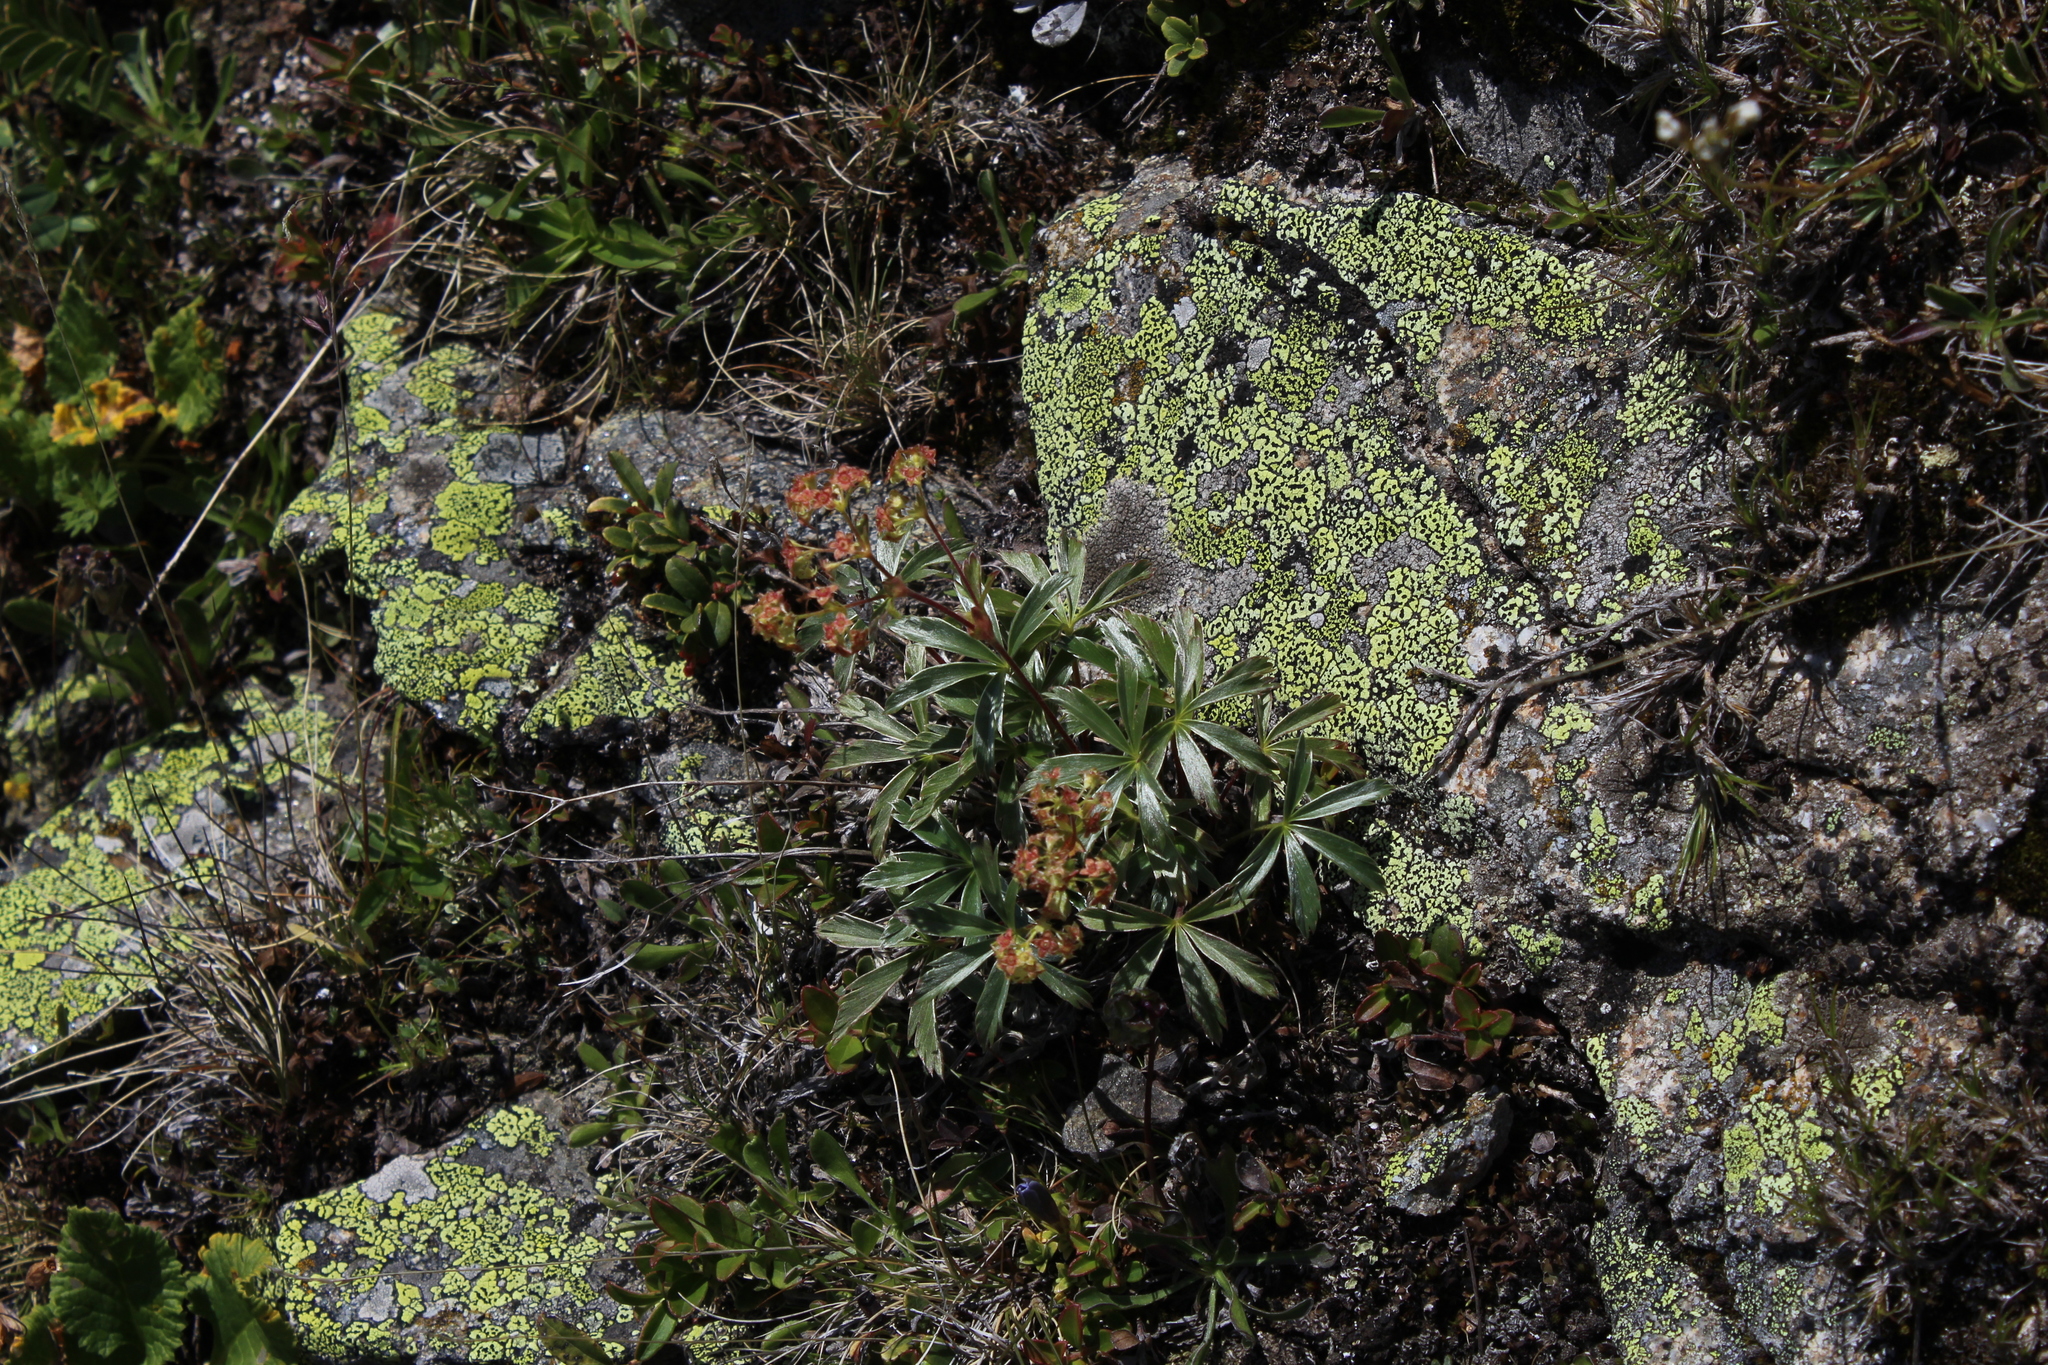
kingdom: Plantae
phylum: Tracheophyta
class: Magnoliopsida
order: Rosales
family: Rosaceae
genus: Alchemilla
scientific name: Alchemilla sericea
